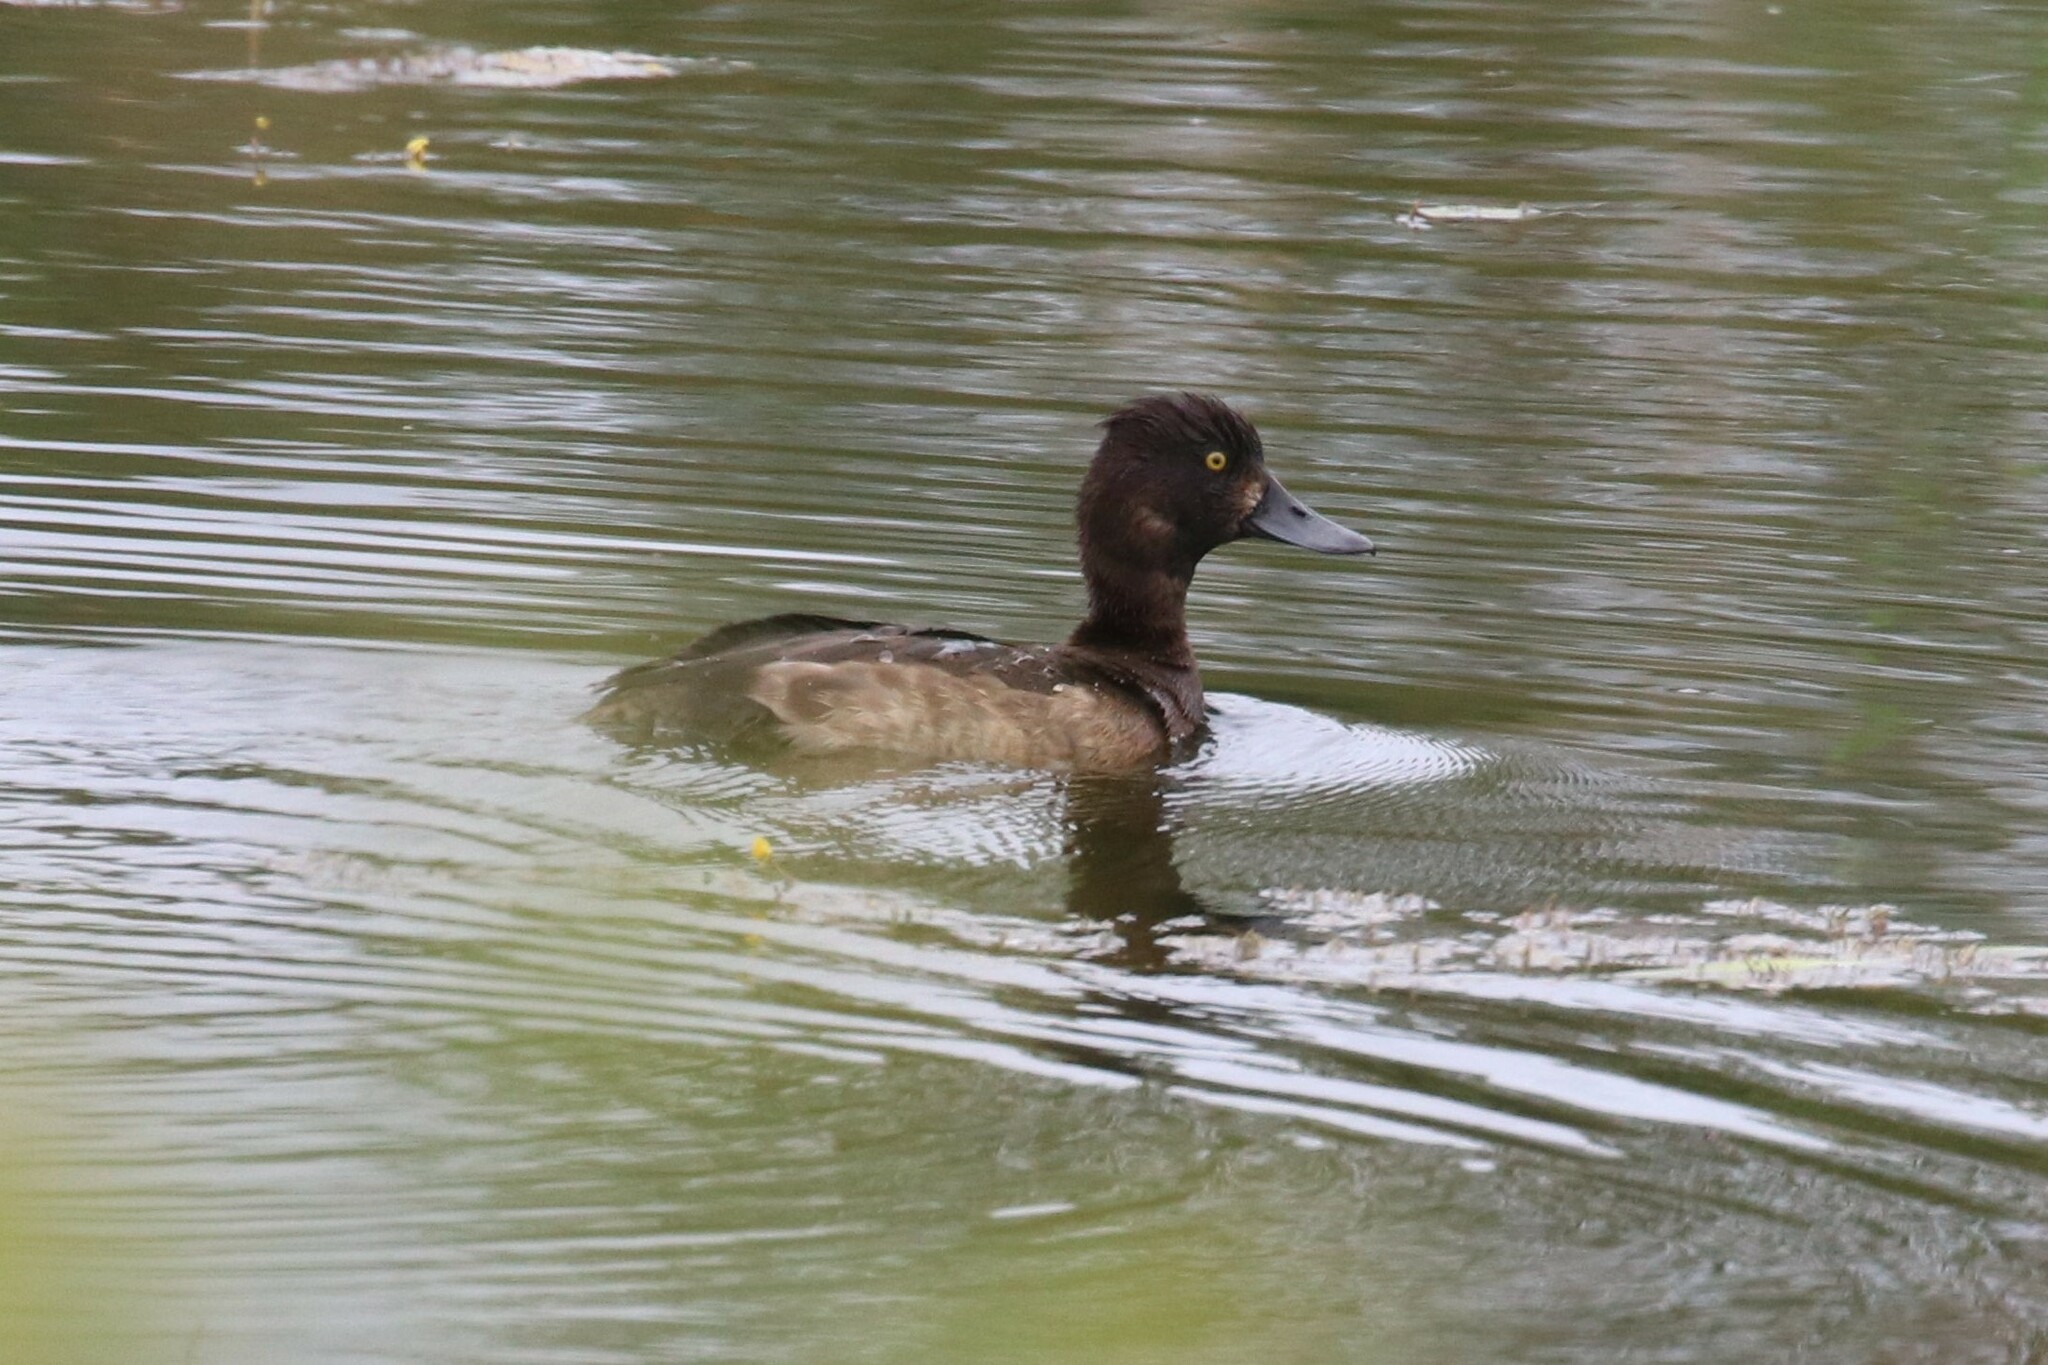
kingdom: Animalia
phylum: Chordata
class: Aves
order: Anseriformes
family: Anatidae
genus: Aythya
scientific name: Aythya fuligula
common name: Tufted duck
